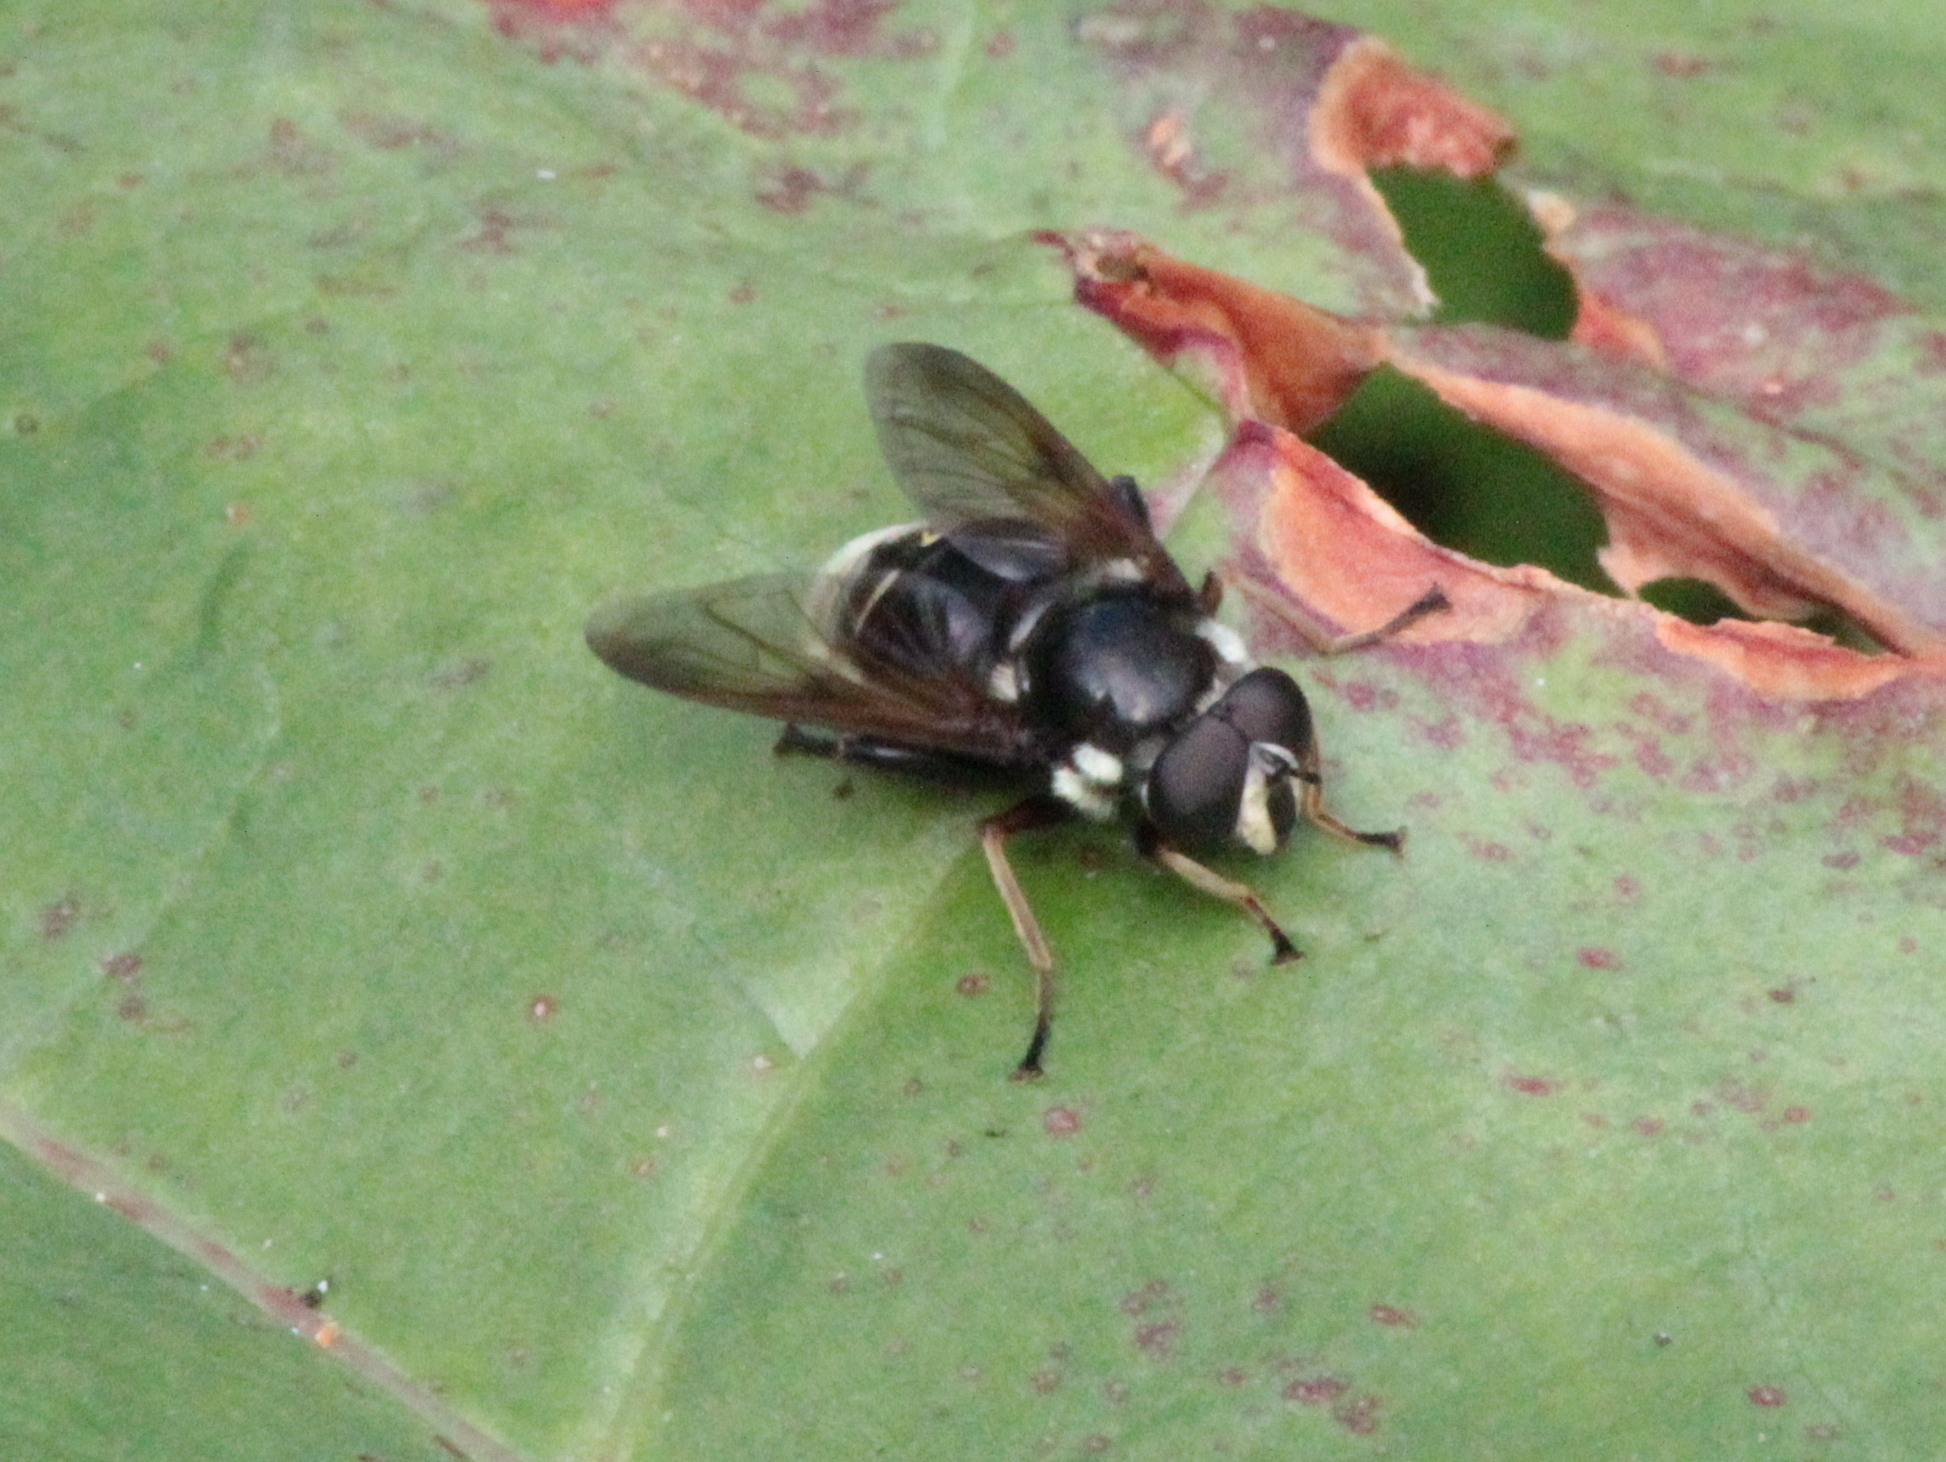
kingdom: Animalia
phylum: Arthropoda
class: Insecta
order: Diptera
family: Syrphidae
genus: Sericomyia
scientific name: Sericomyia militaris
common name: Narrow-banded pond fly
